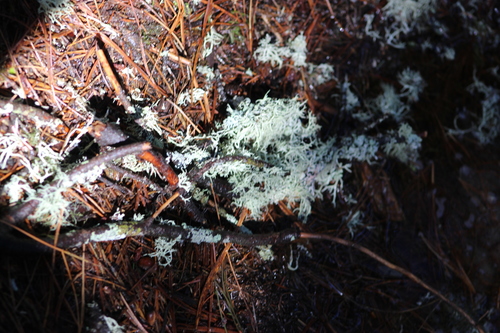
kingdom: Fungi
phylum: Ascomycota
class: Lecanoromycetes
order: Lecanorales
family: Parmeliaceae
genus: Evernia
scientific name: Evernia mesomorpha
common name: Boreal oak moss lichen
